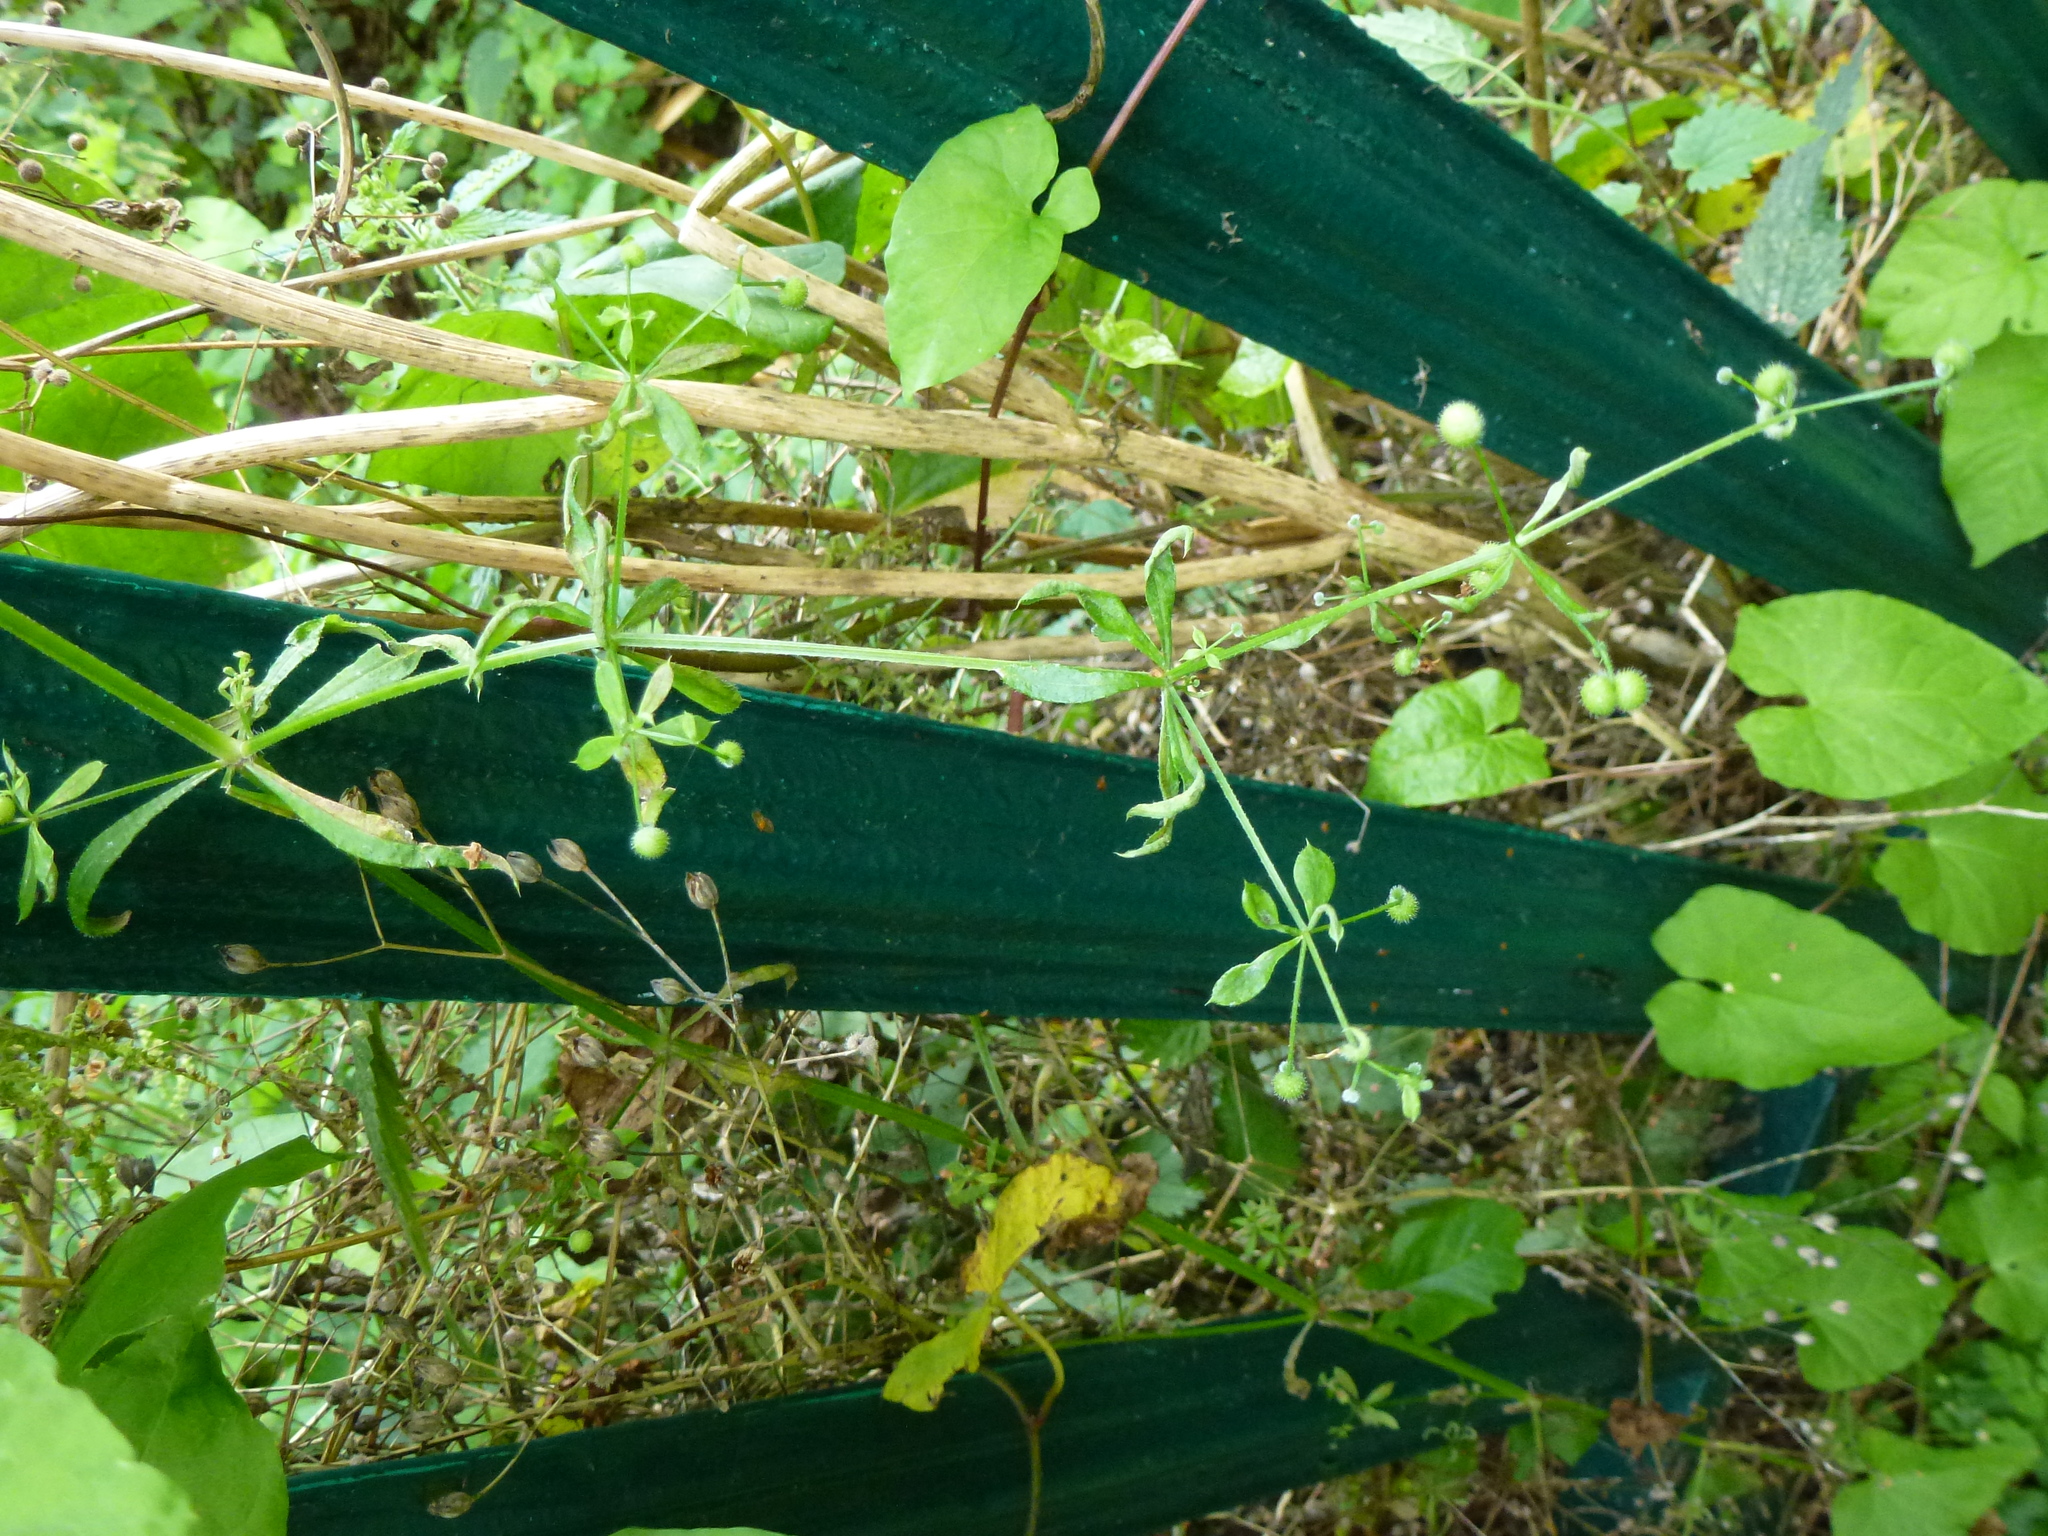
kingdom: Plantae
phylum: Tracheophyta
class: Magnoliopsida
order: Gentianales
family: Rubiaceae
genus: Galium
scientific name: Galium aparine
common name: Cleavers
